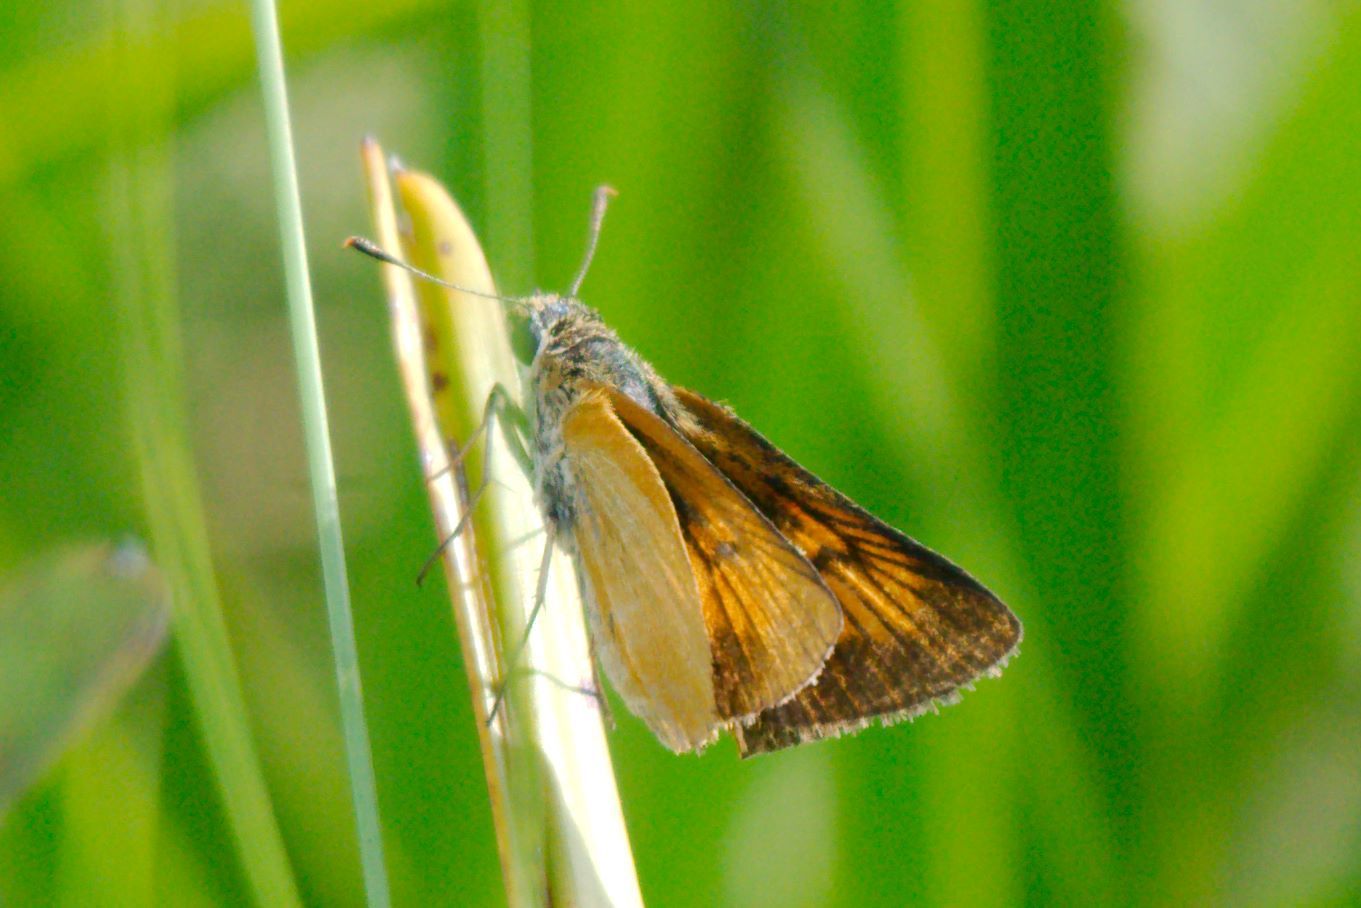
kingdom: Animalia
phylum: Arthropoda
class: Insecta
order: Lepidoptera
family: Hesperiidae
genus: Atrytone
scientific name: Atrytone delaware
